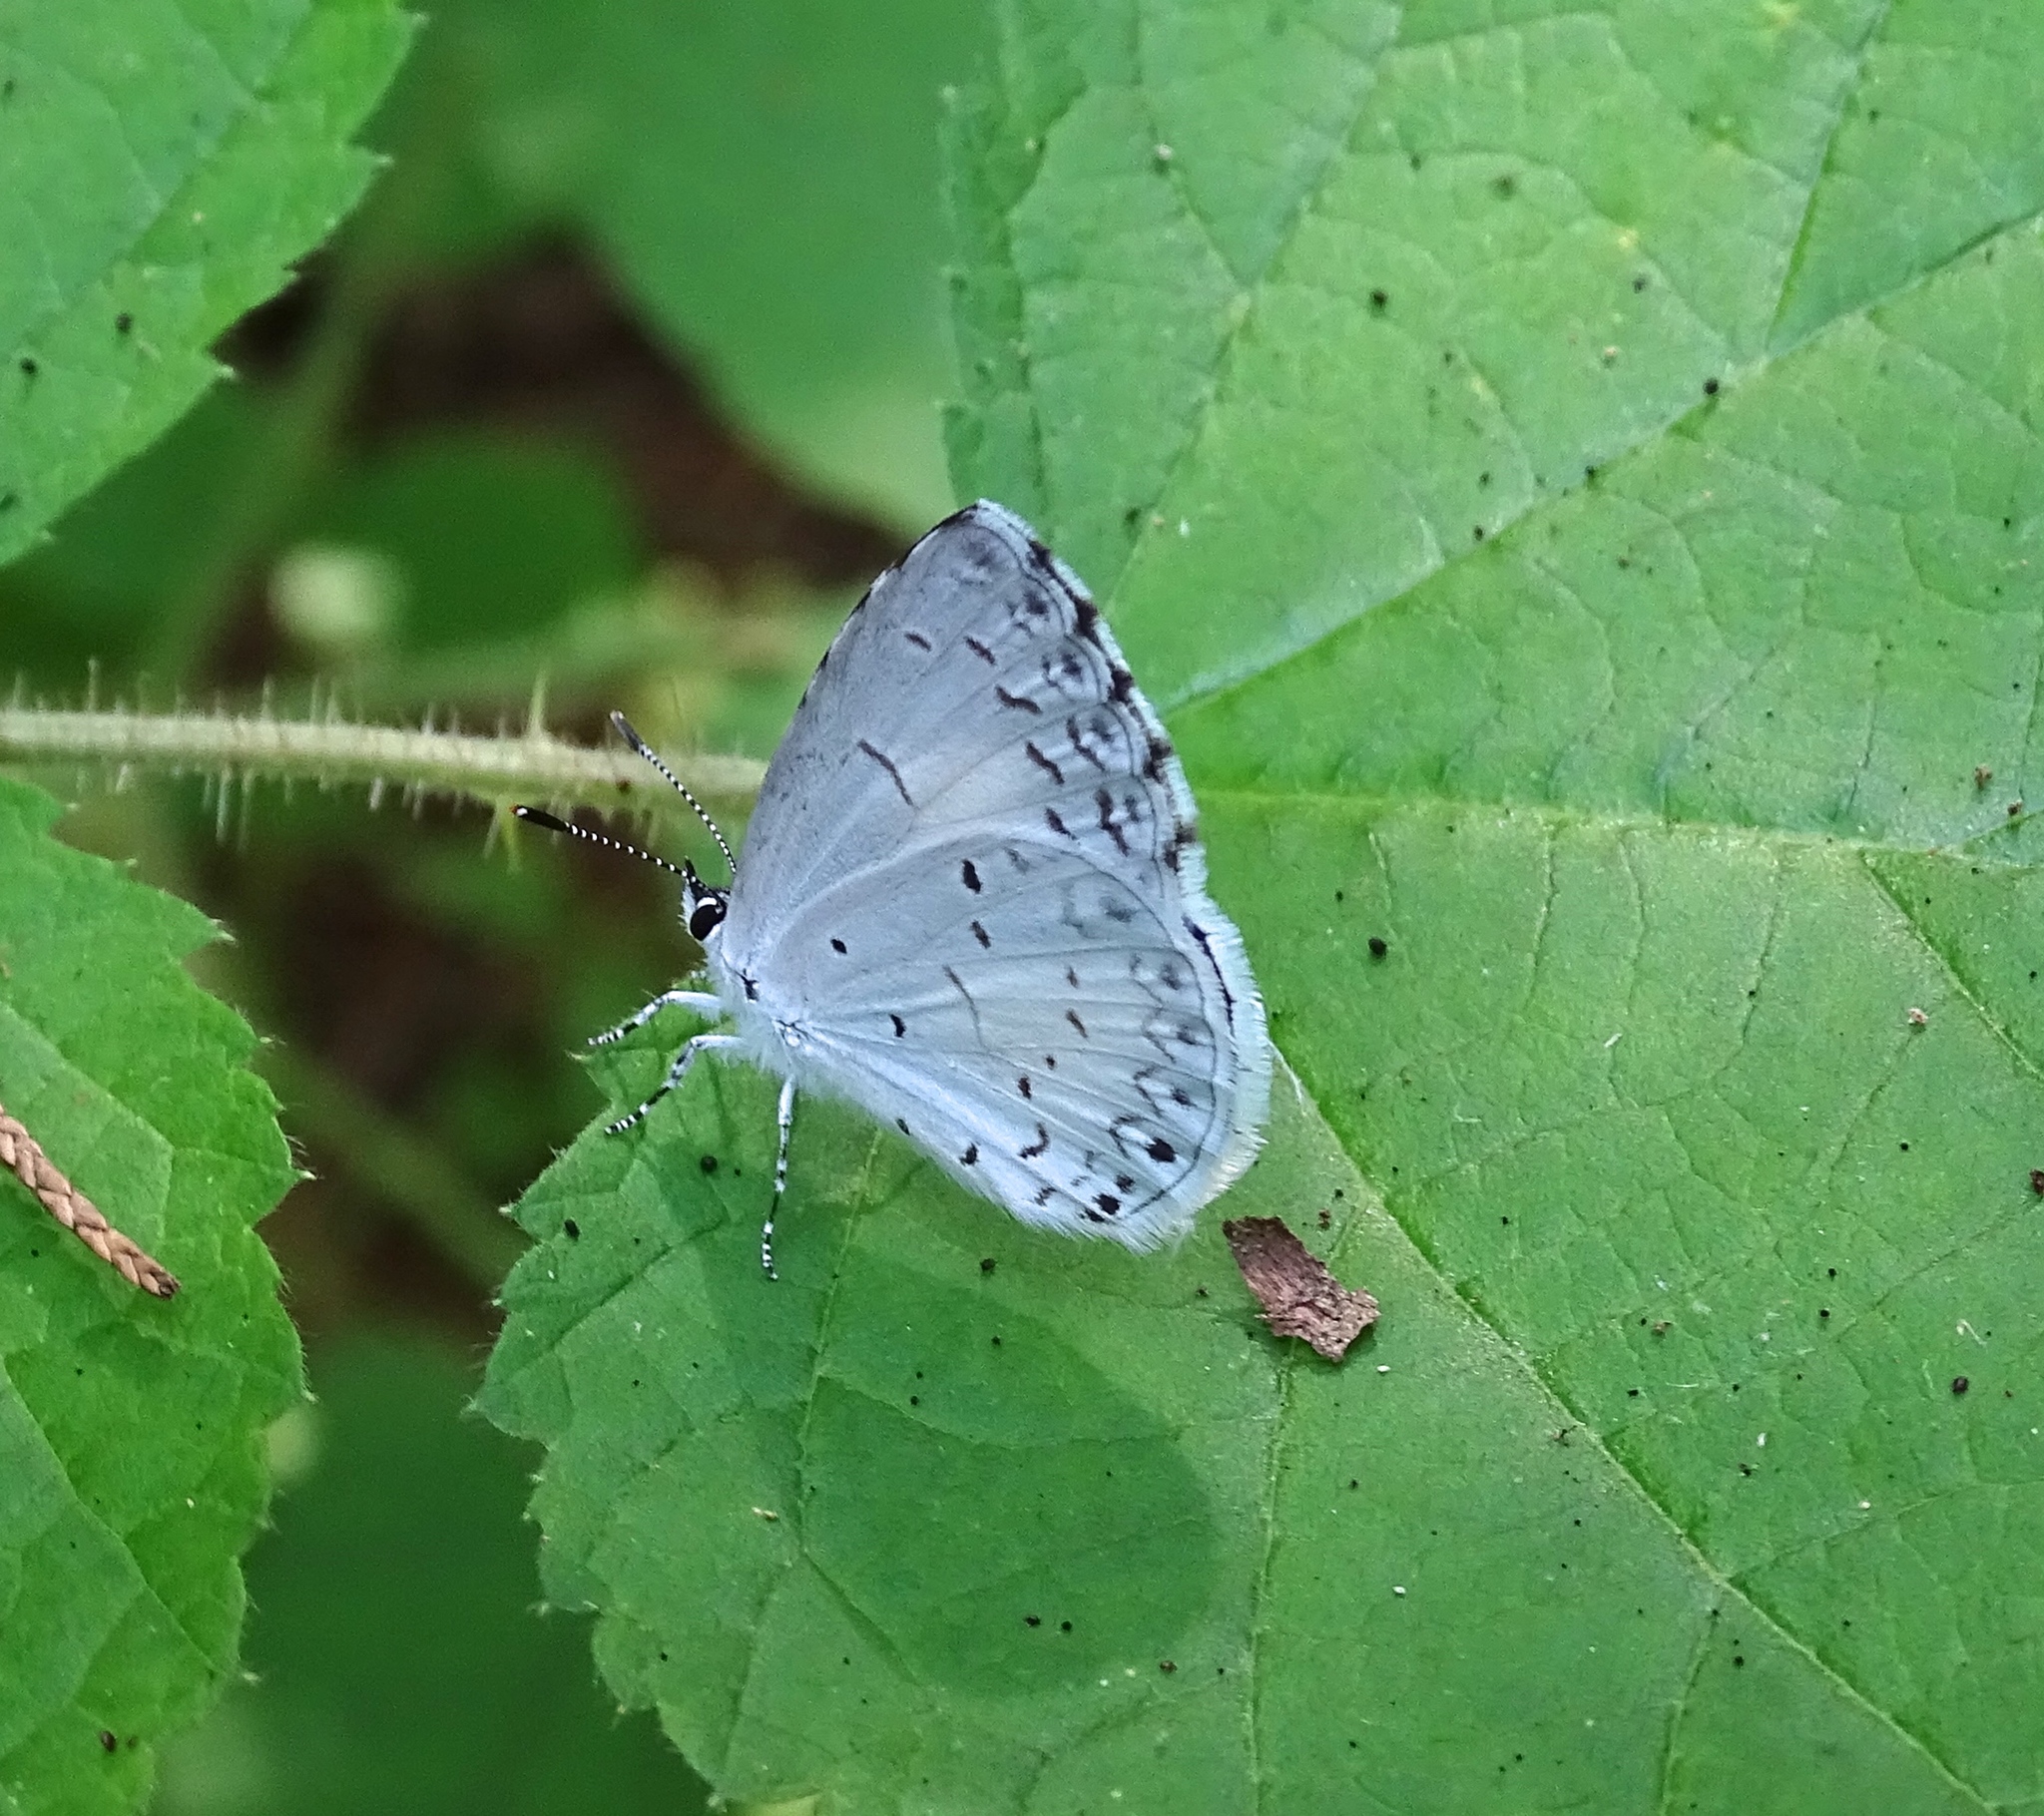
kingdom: Animalia
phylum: Arthropoda
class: Insecta
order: Lepidoptera
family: Lycaenidae
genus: Cyaniris
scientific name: Cyaniris neglecta
